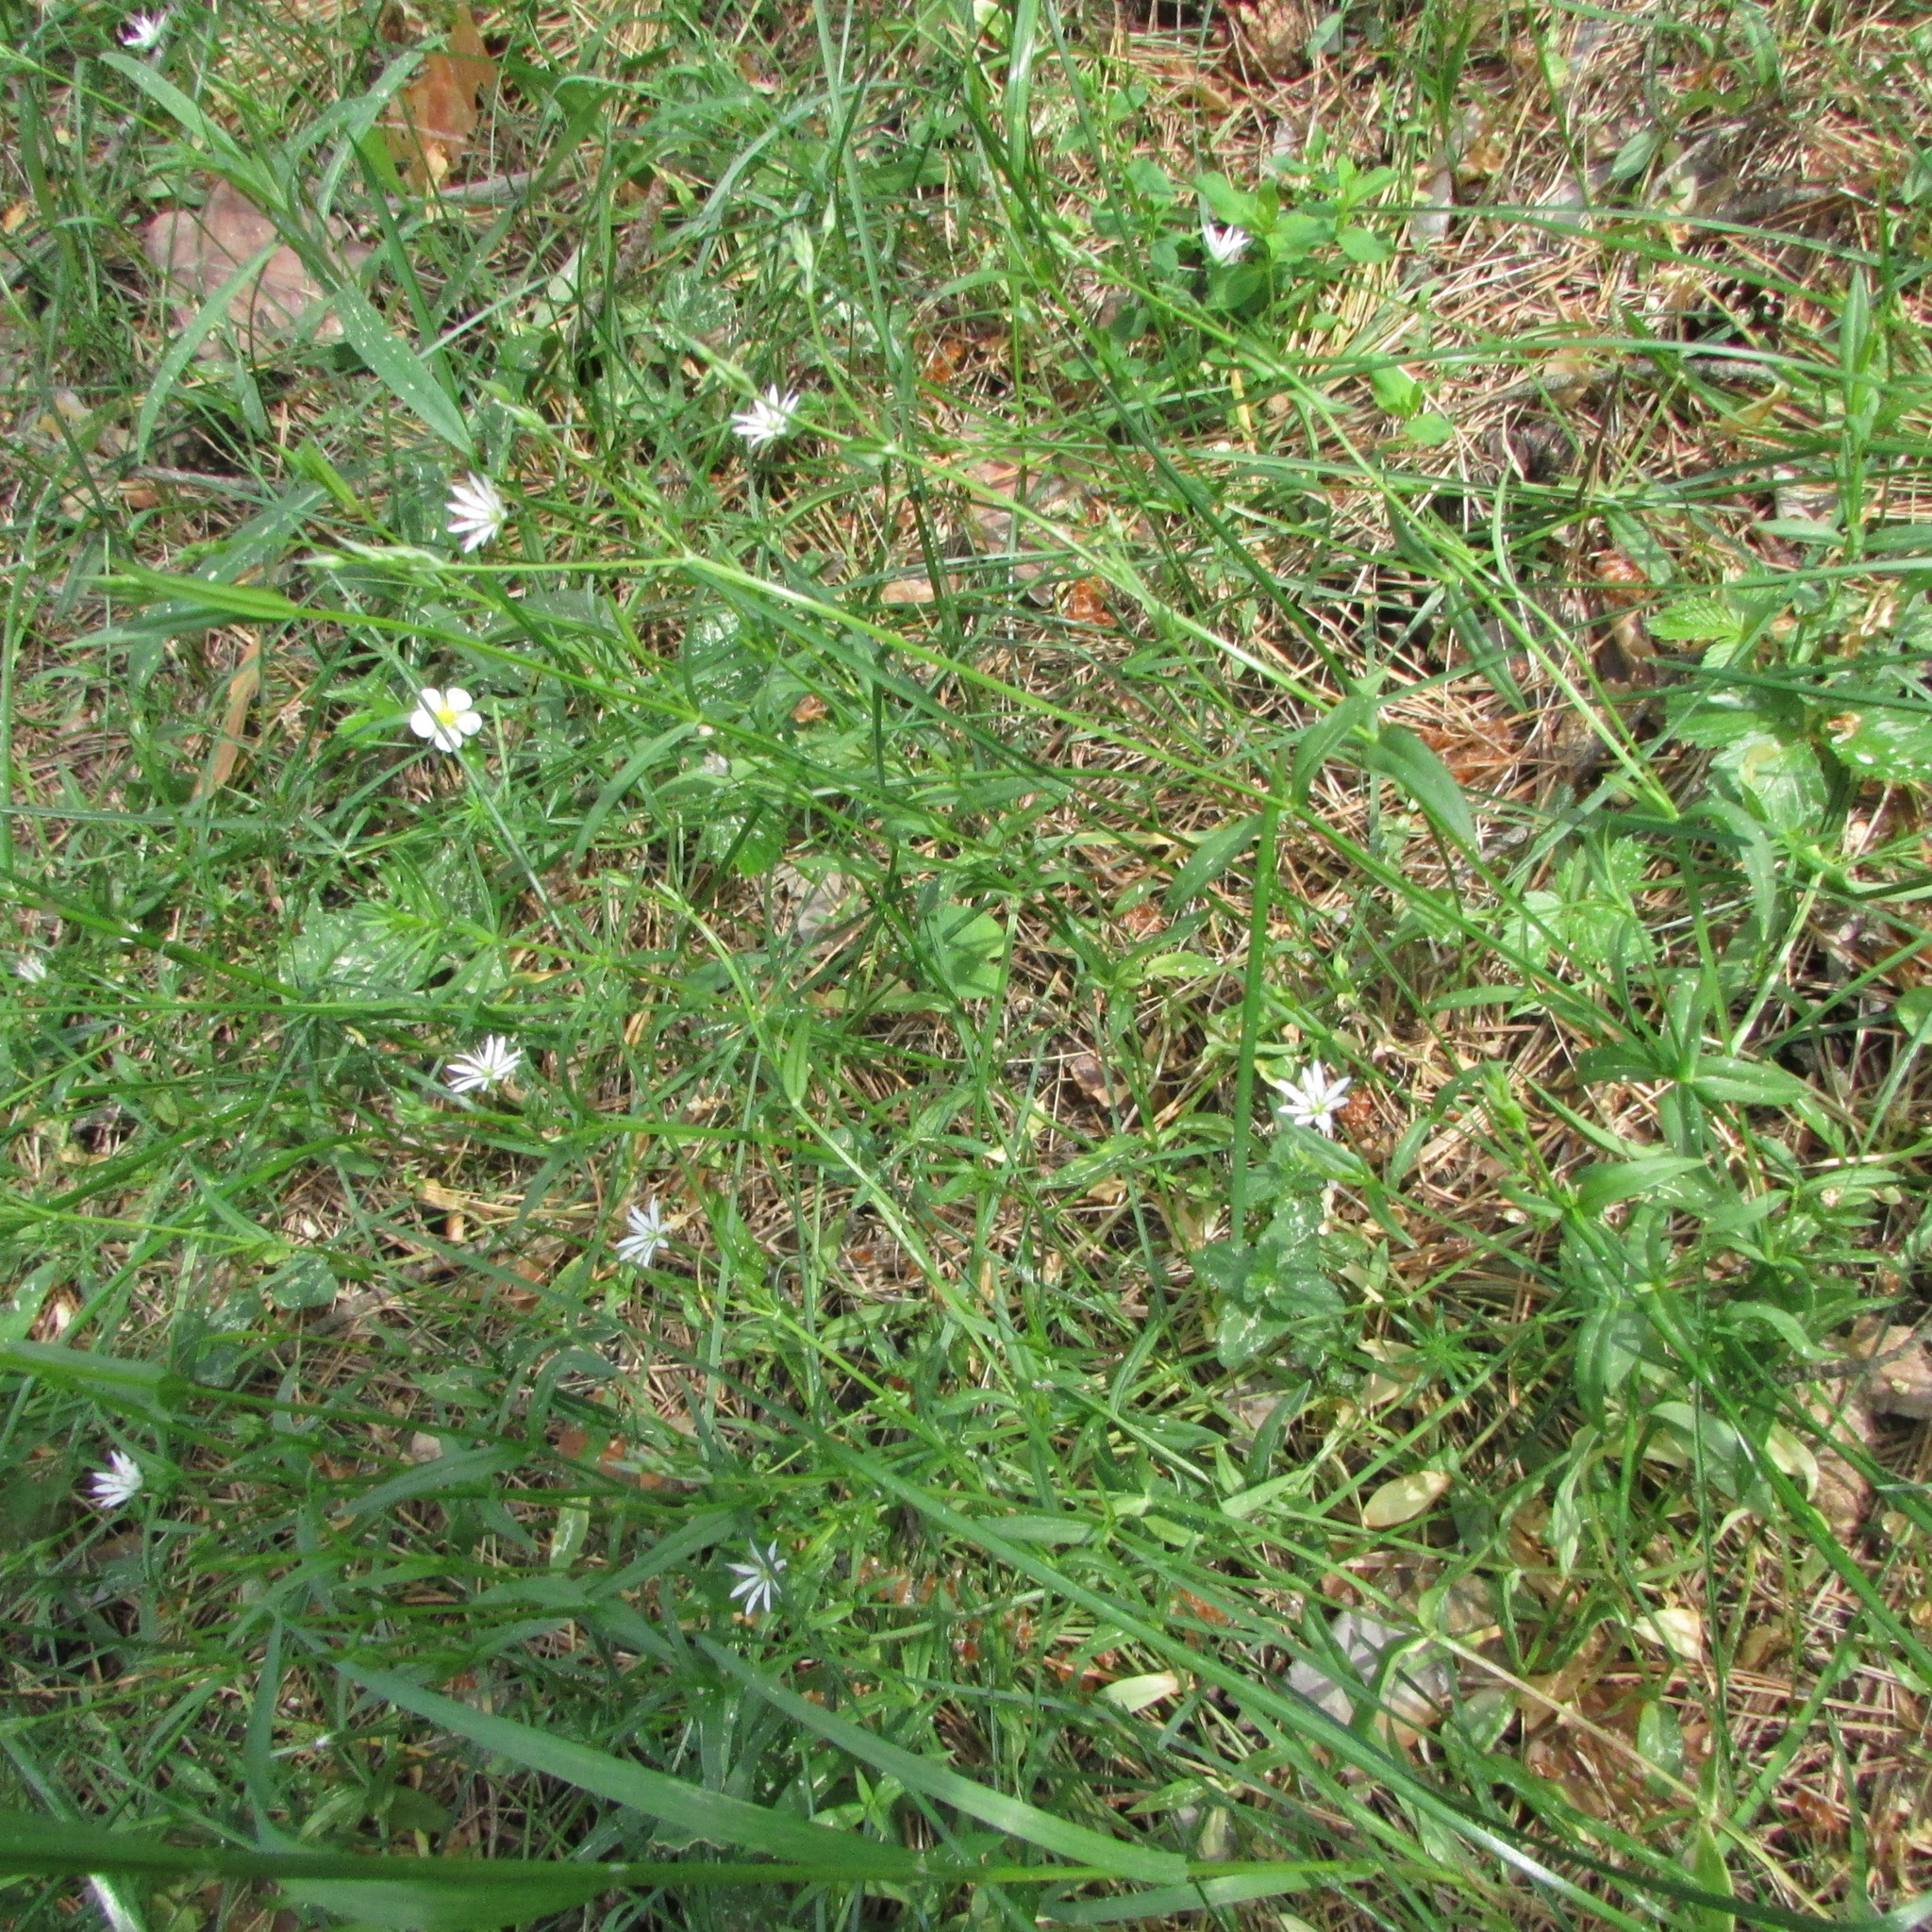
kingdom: Plantae
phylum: Tracheophyta
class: Magnoliopsida
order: Caryophyllales
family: Caryophyllaceae
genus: Stellaria
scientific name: Stellaria graminea
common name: Grass-like starwort
